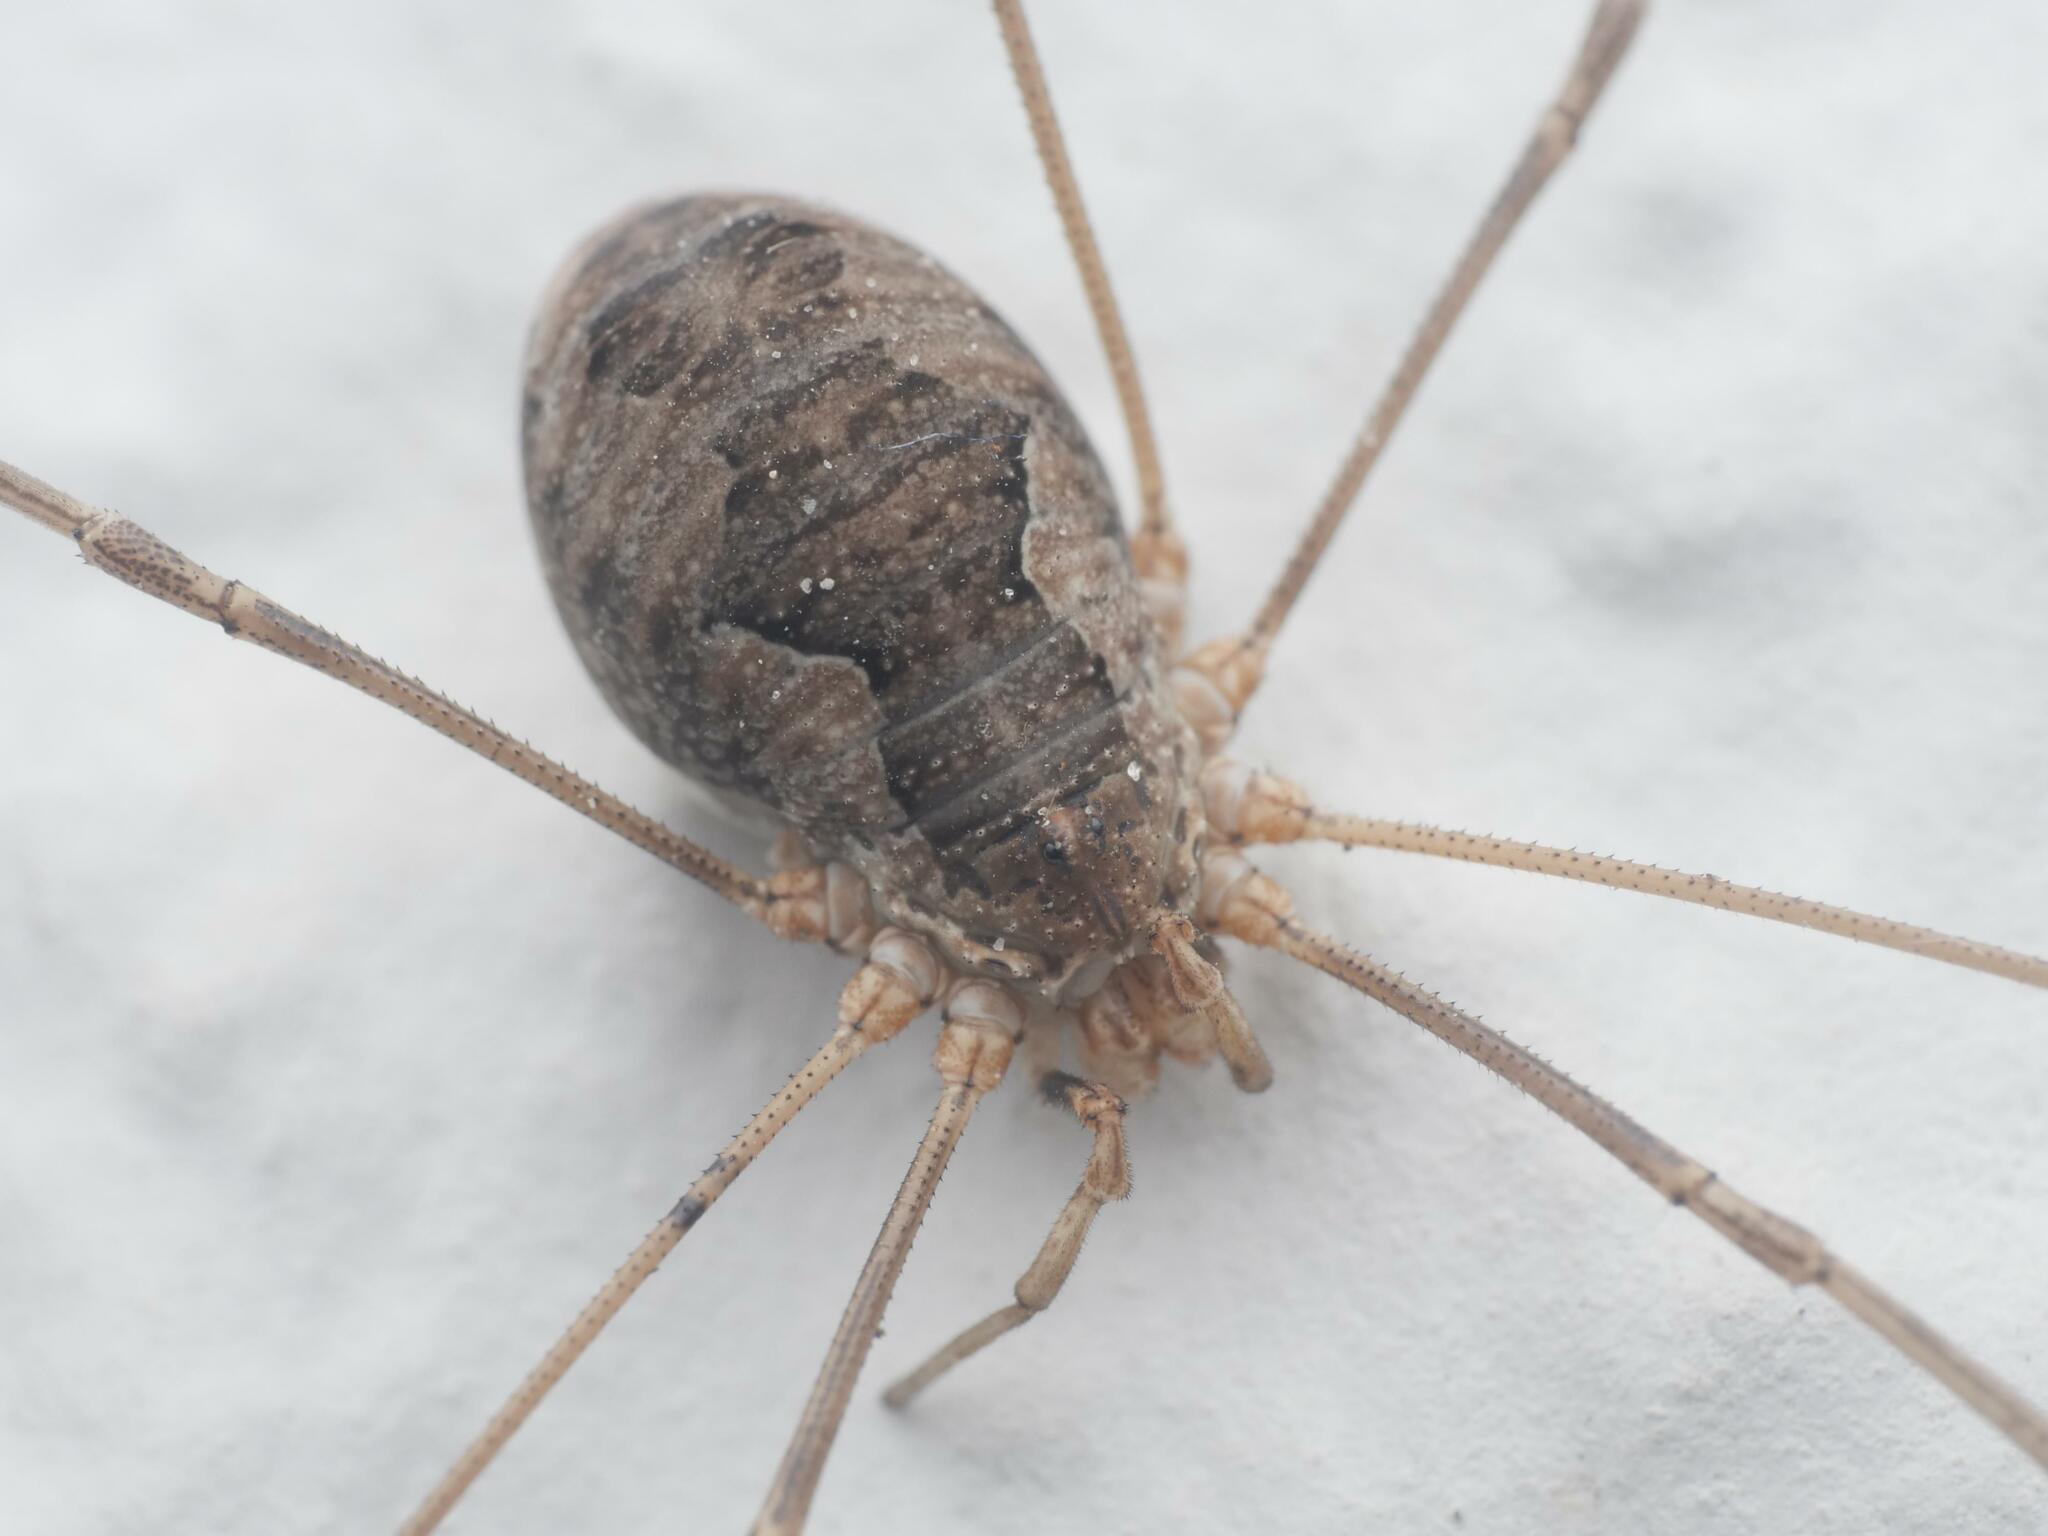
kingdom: Animalia
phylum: Arthropoda
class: Arachnida
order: Opiliones
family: Phalangiidae
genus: Phalangium
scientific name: Phalangium opilio
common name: Daddy longleg
